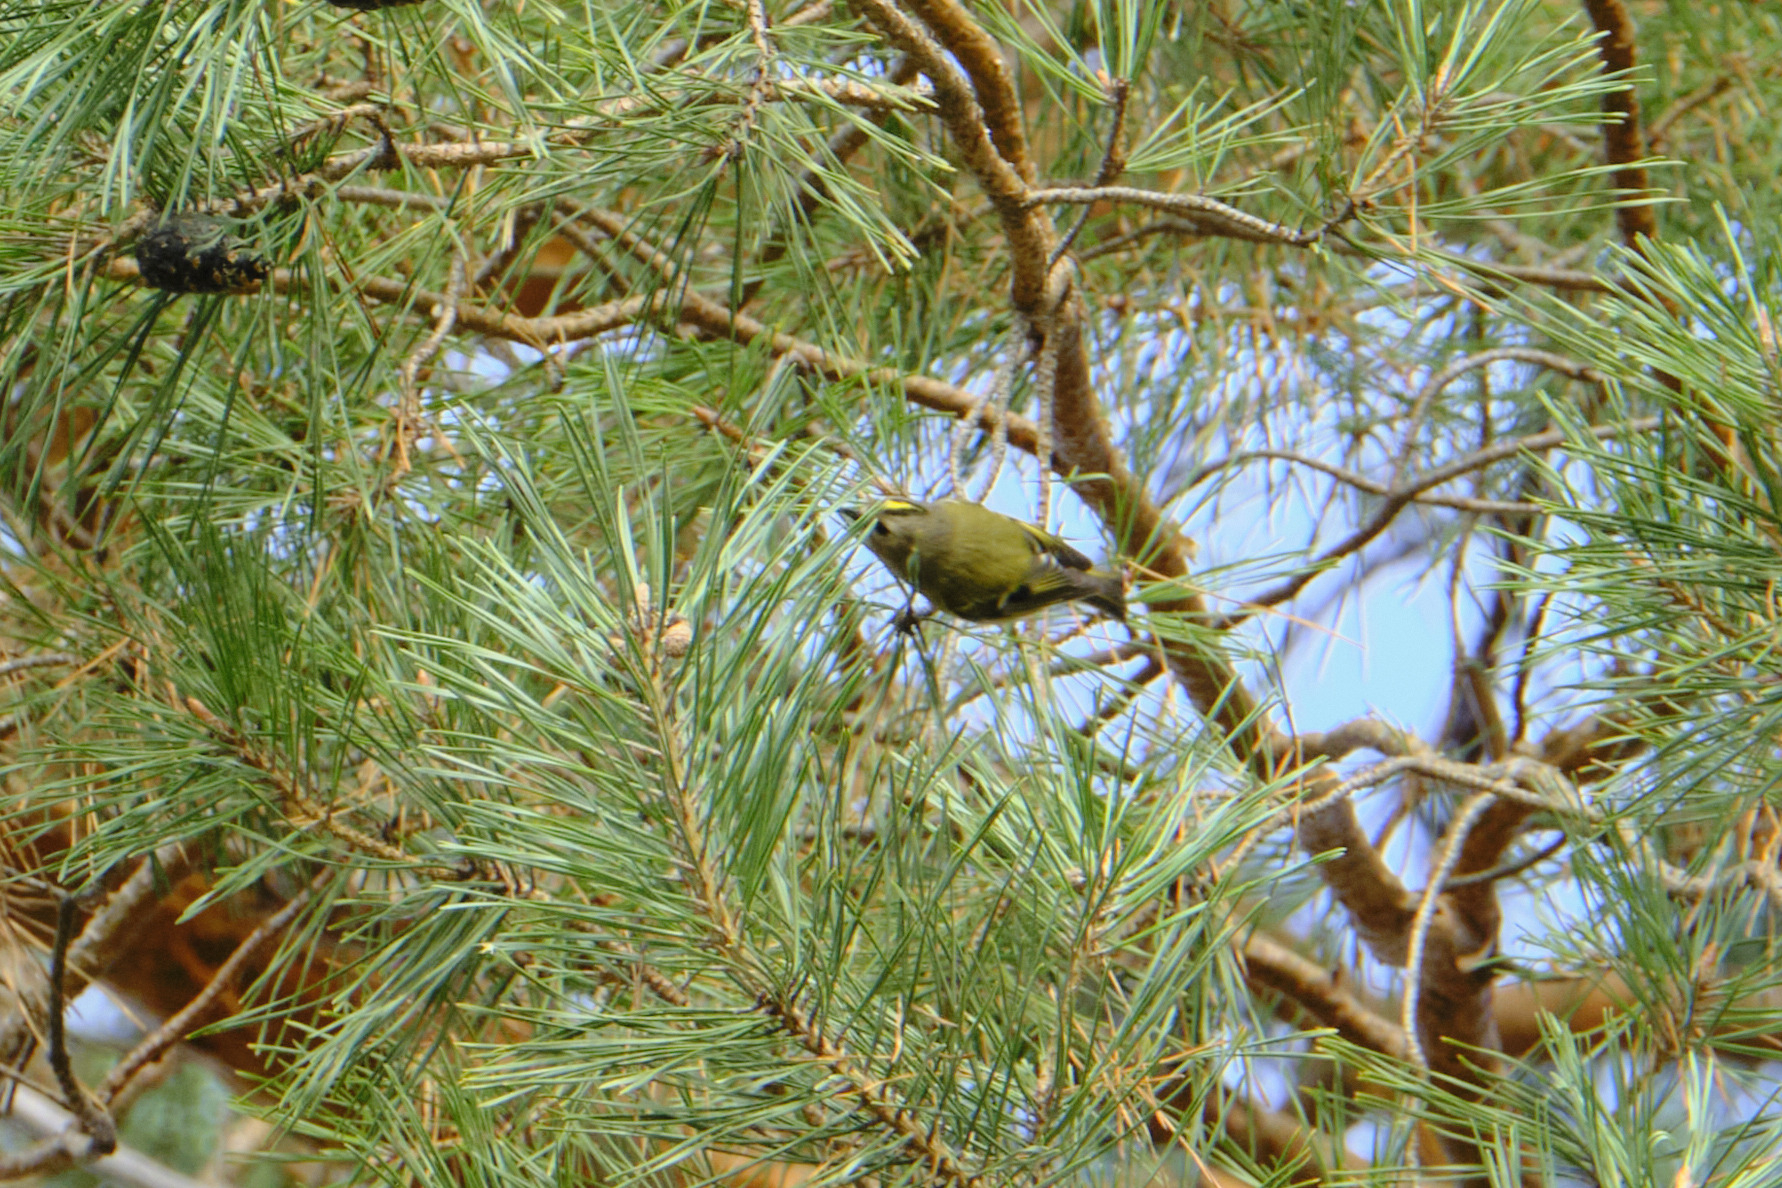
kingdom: Animalia
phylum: Chordata
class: Aves
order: Passeriformes
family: Regulidae
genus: Regulus
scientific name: Regulus regulus
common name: Goldcrest
